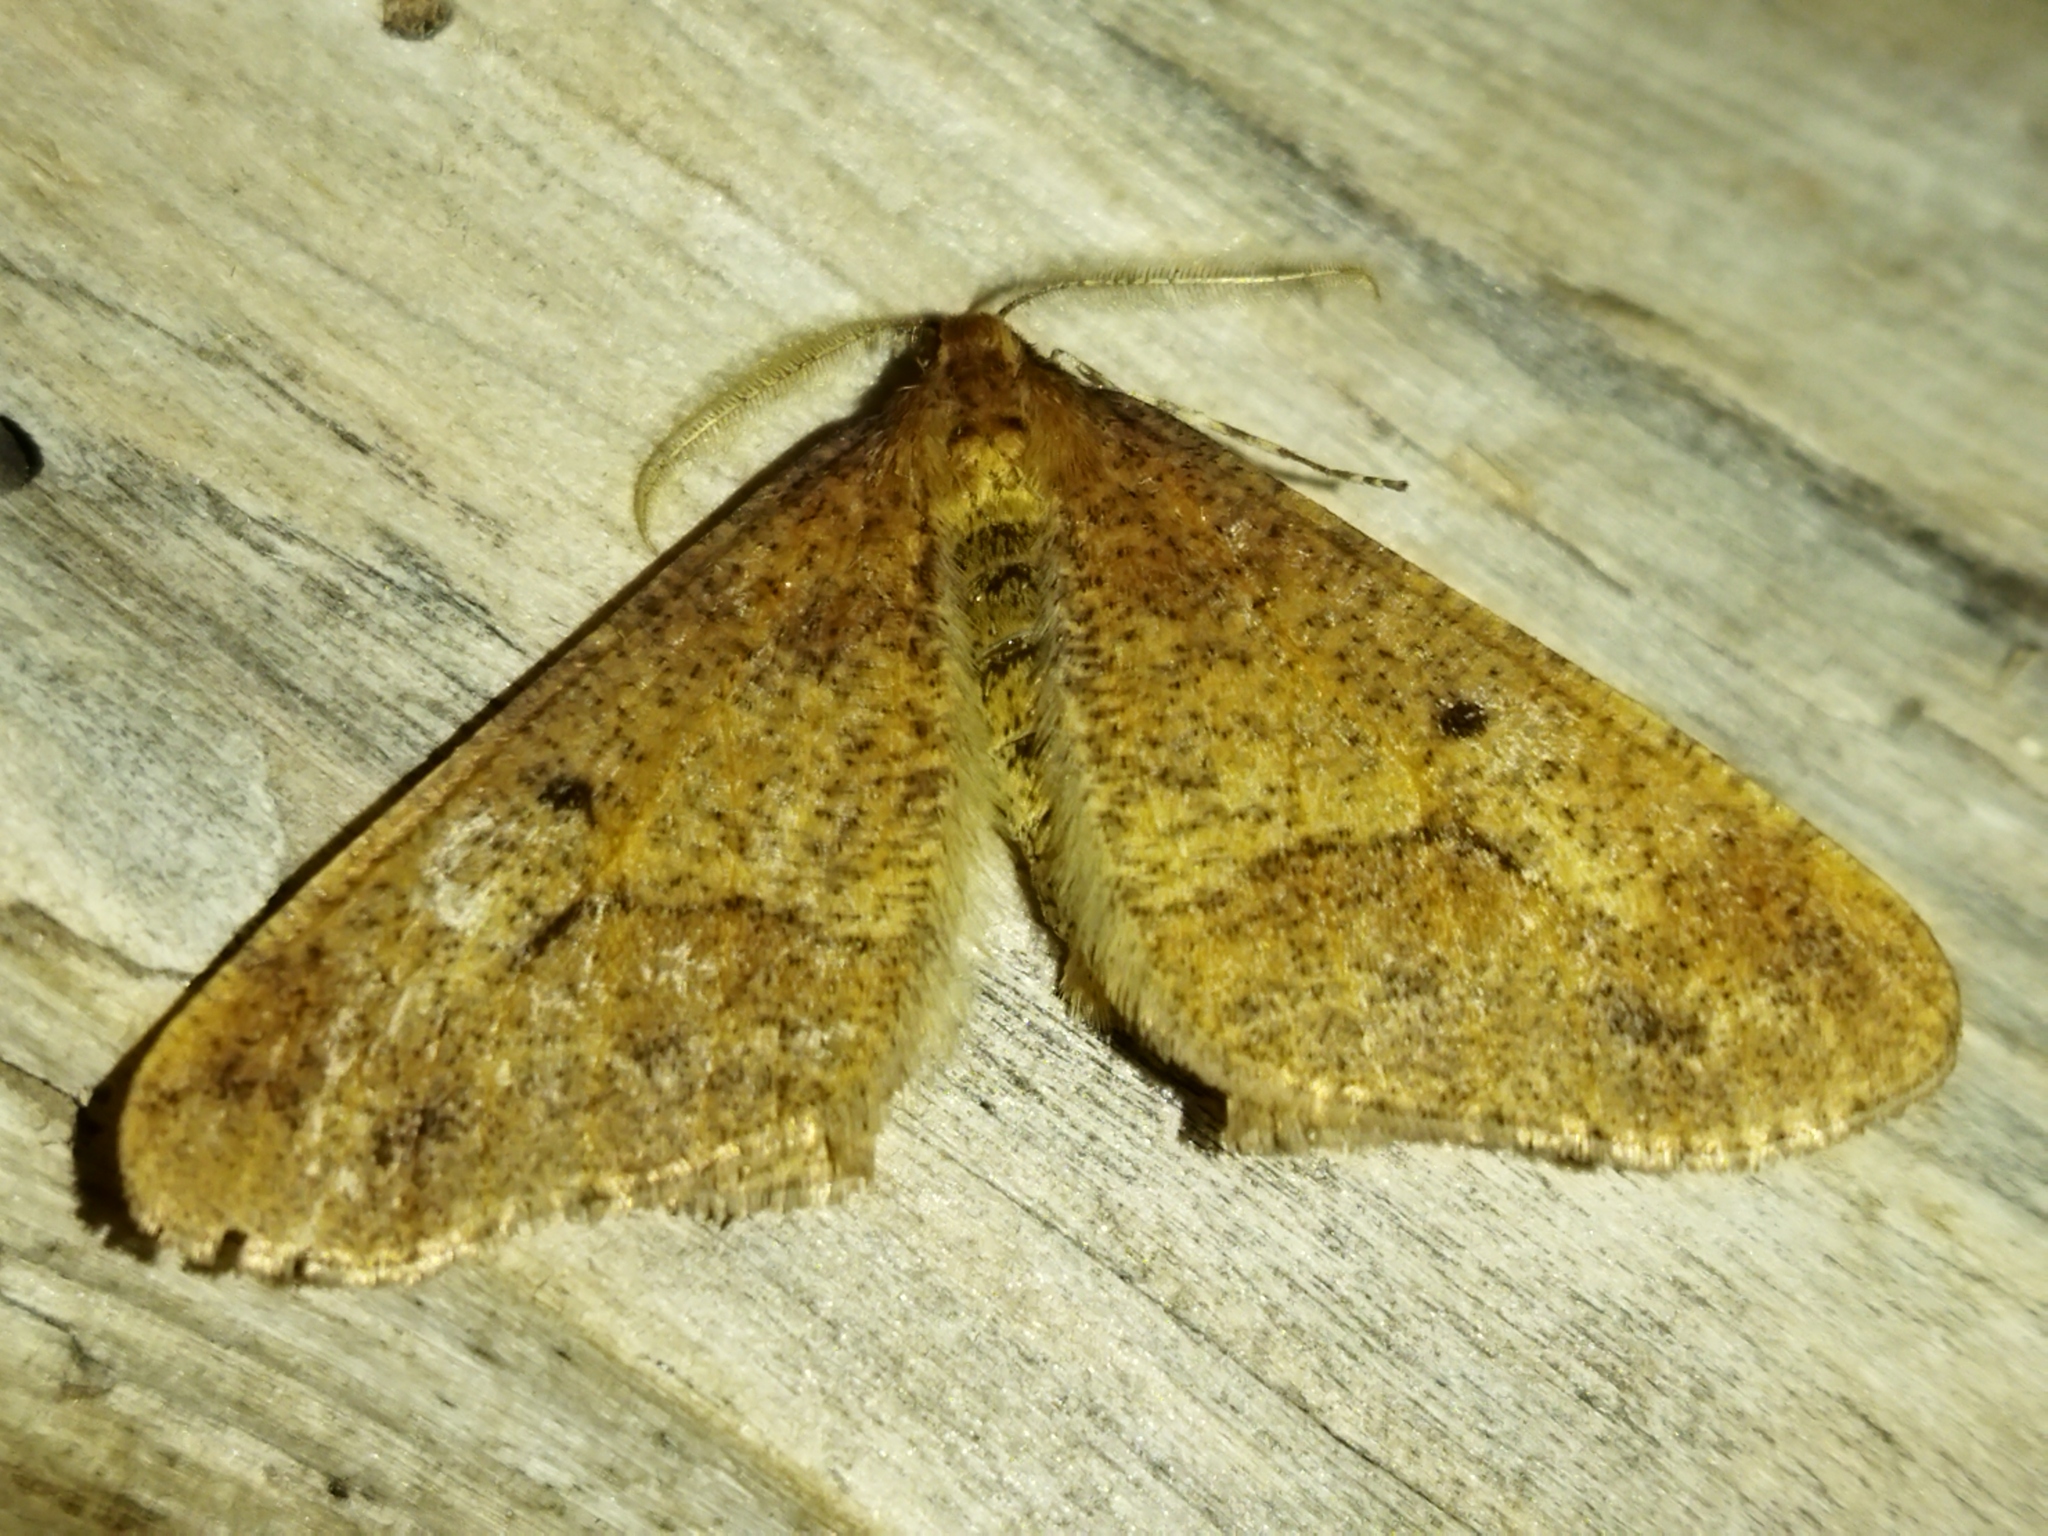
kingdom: Animalia
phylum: Arthropoda
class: Insecta
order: Lepidoptera
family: Geometridae
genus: Erannis
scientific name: Erannis defoliaria
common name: Mottled umber
